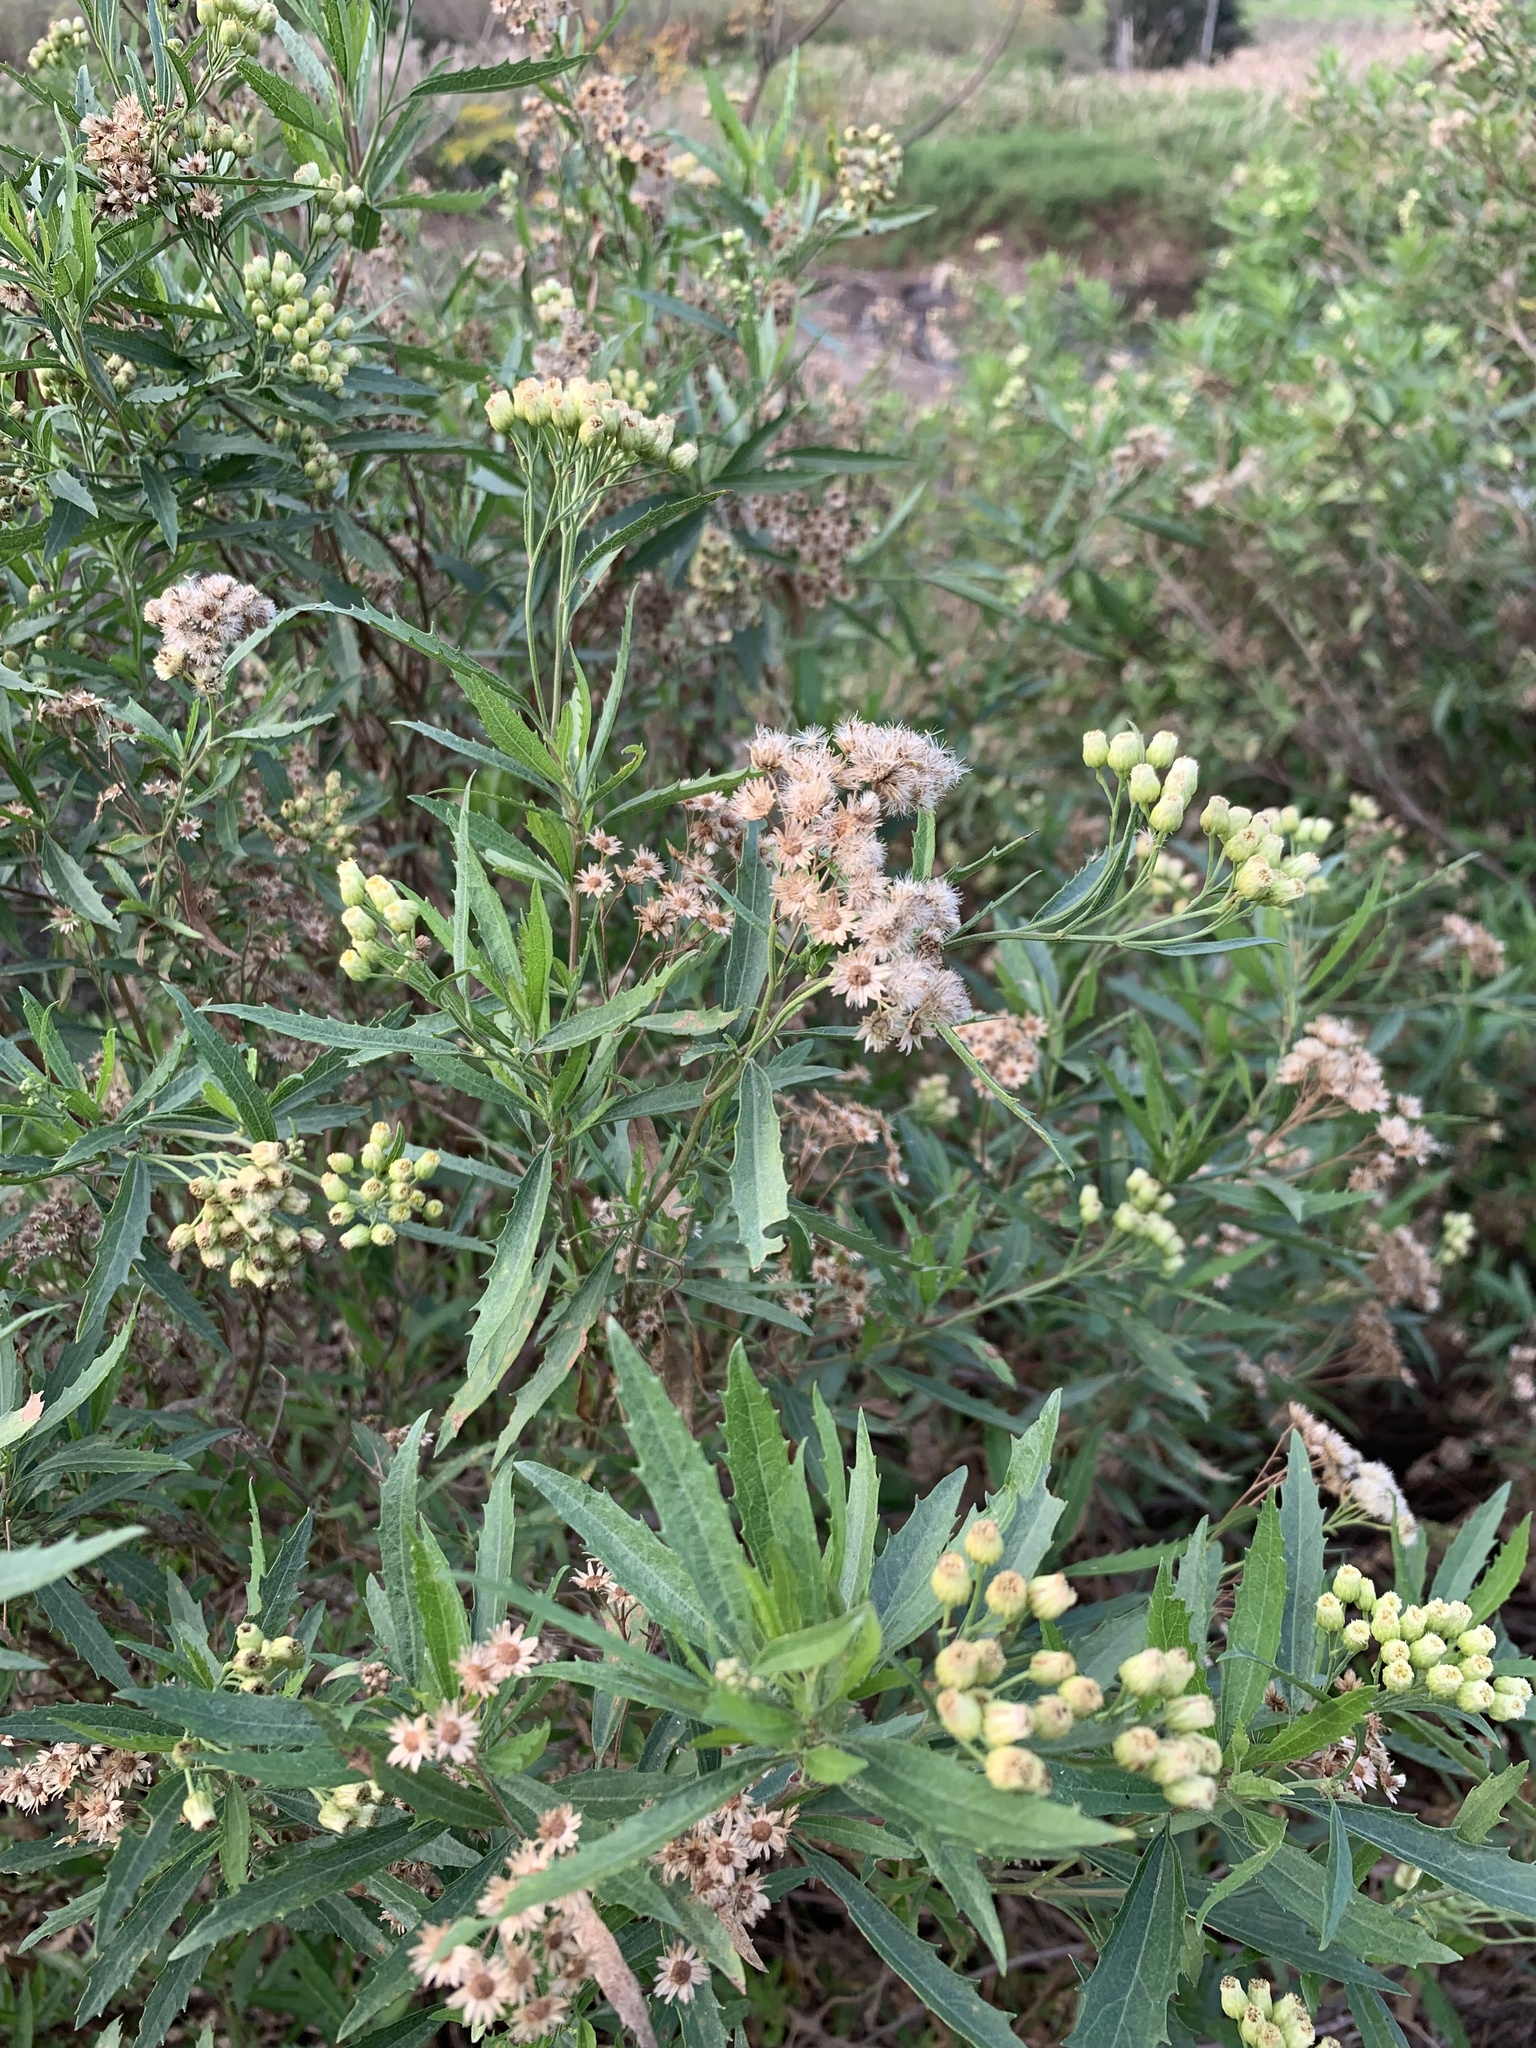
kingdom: Plantae
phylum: Tracheophyta
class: Magnoliopsida
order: Asterales
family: Asteraceae
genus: Nidorella
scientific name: Nidorella ivifolia
